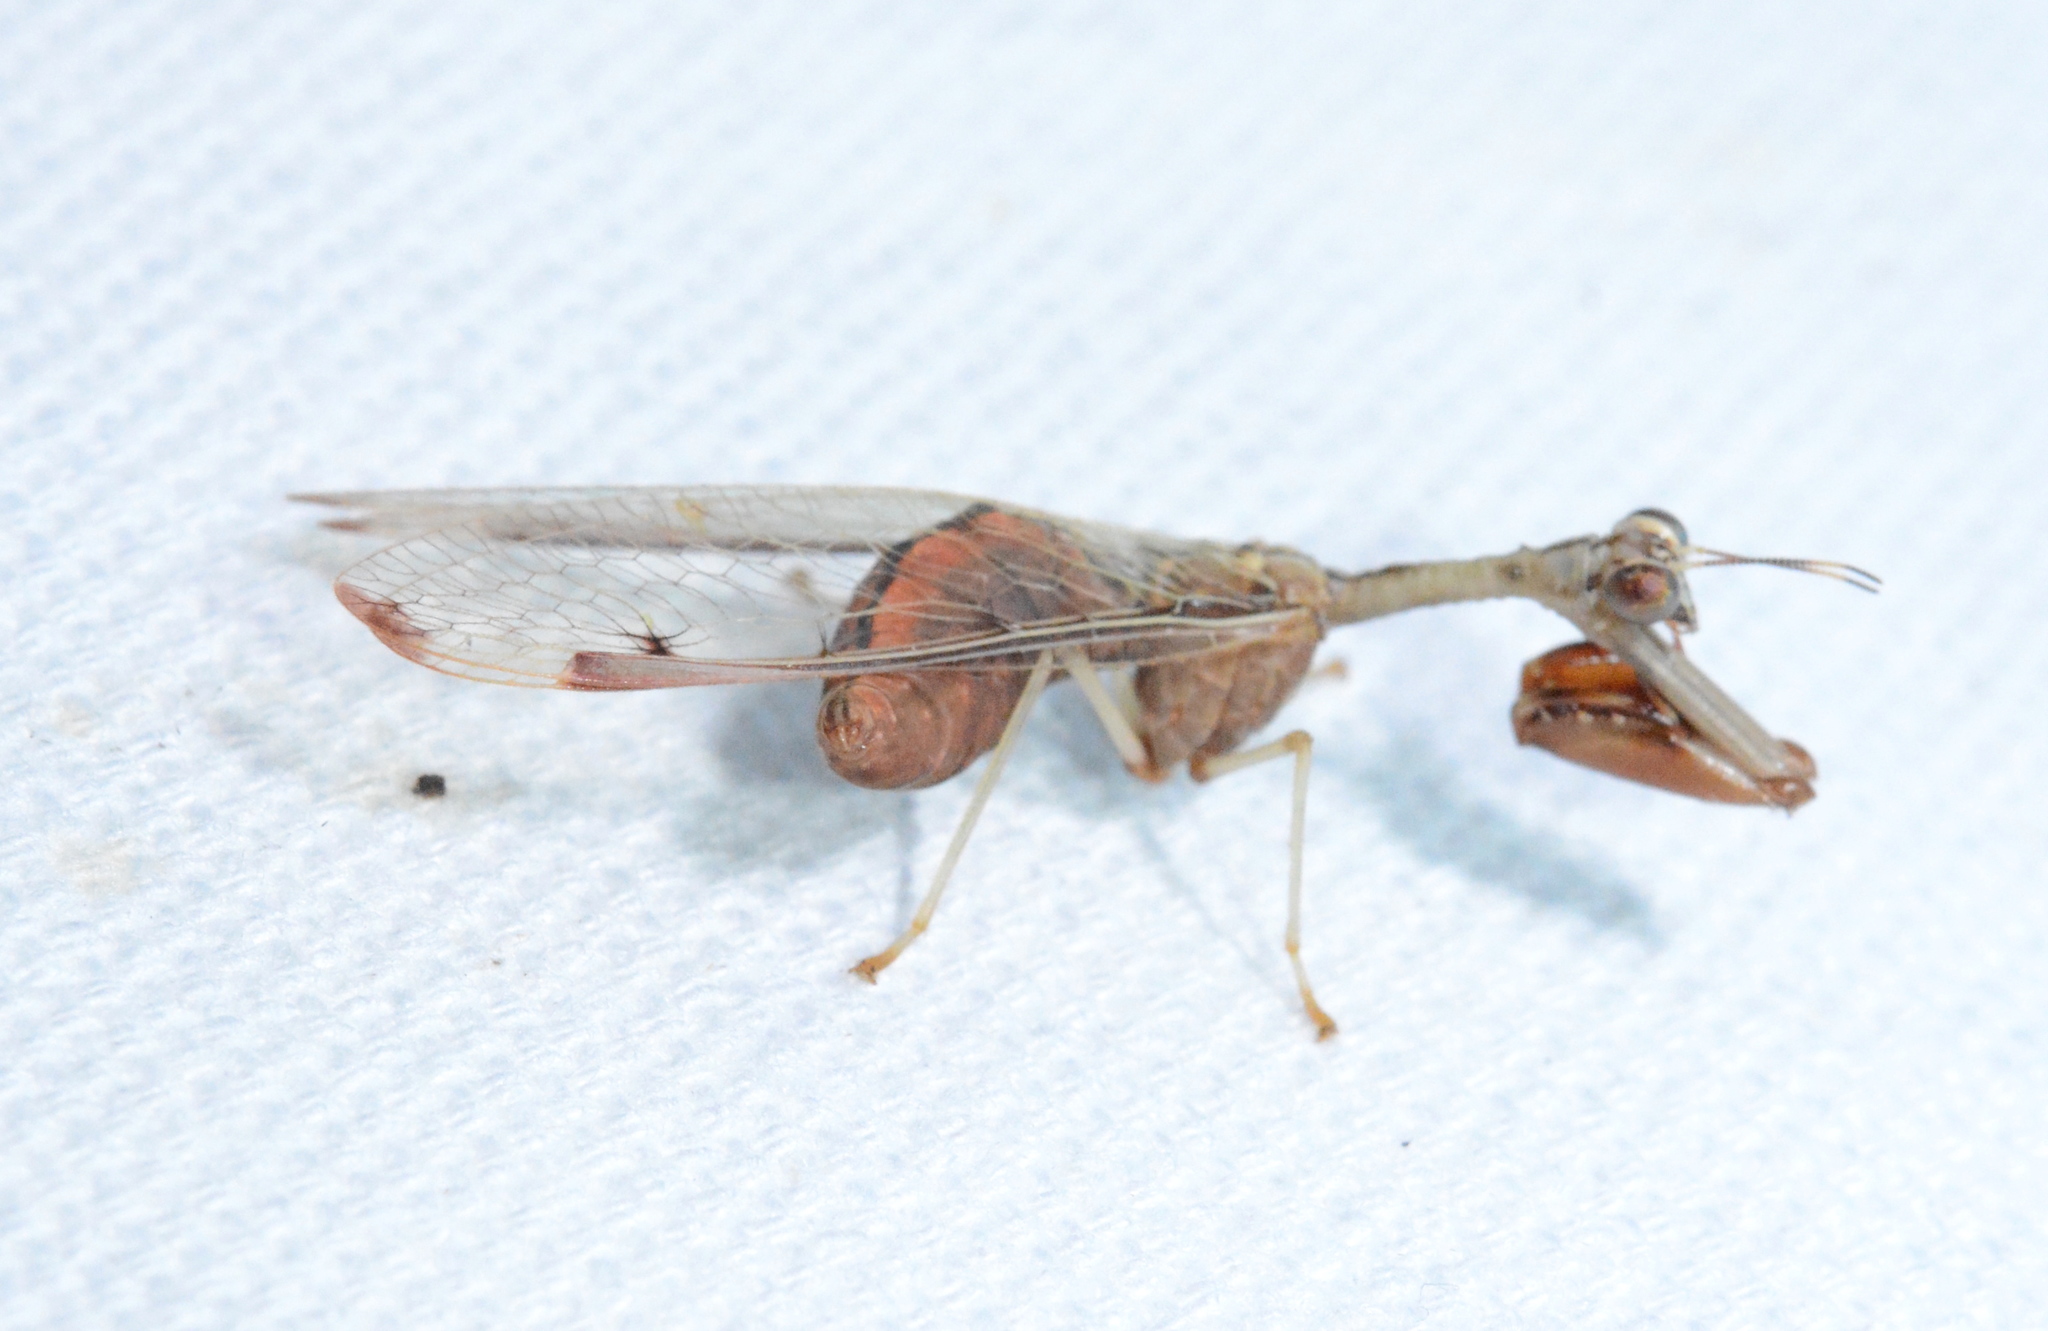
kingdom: Animalia
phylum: Arthropoda
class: Insecta
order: Neuroptera
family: Mantispidae
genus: Dicromantispa
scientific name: Dicromantispa interrupta
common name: Four-spotted mantidfly
